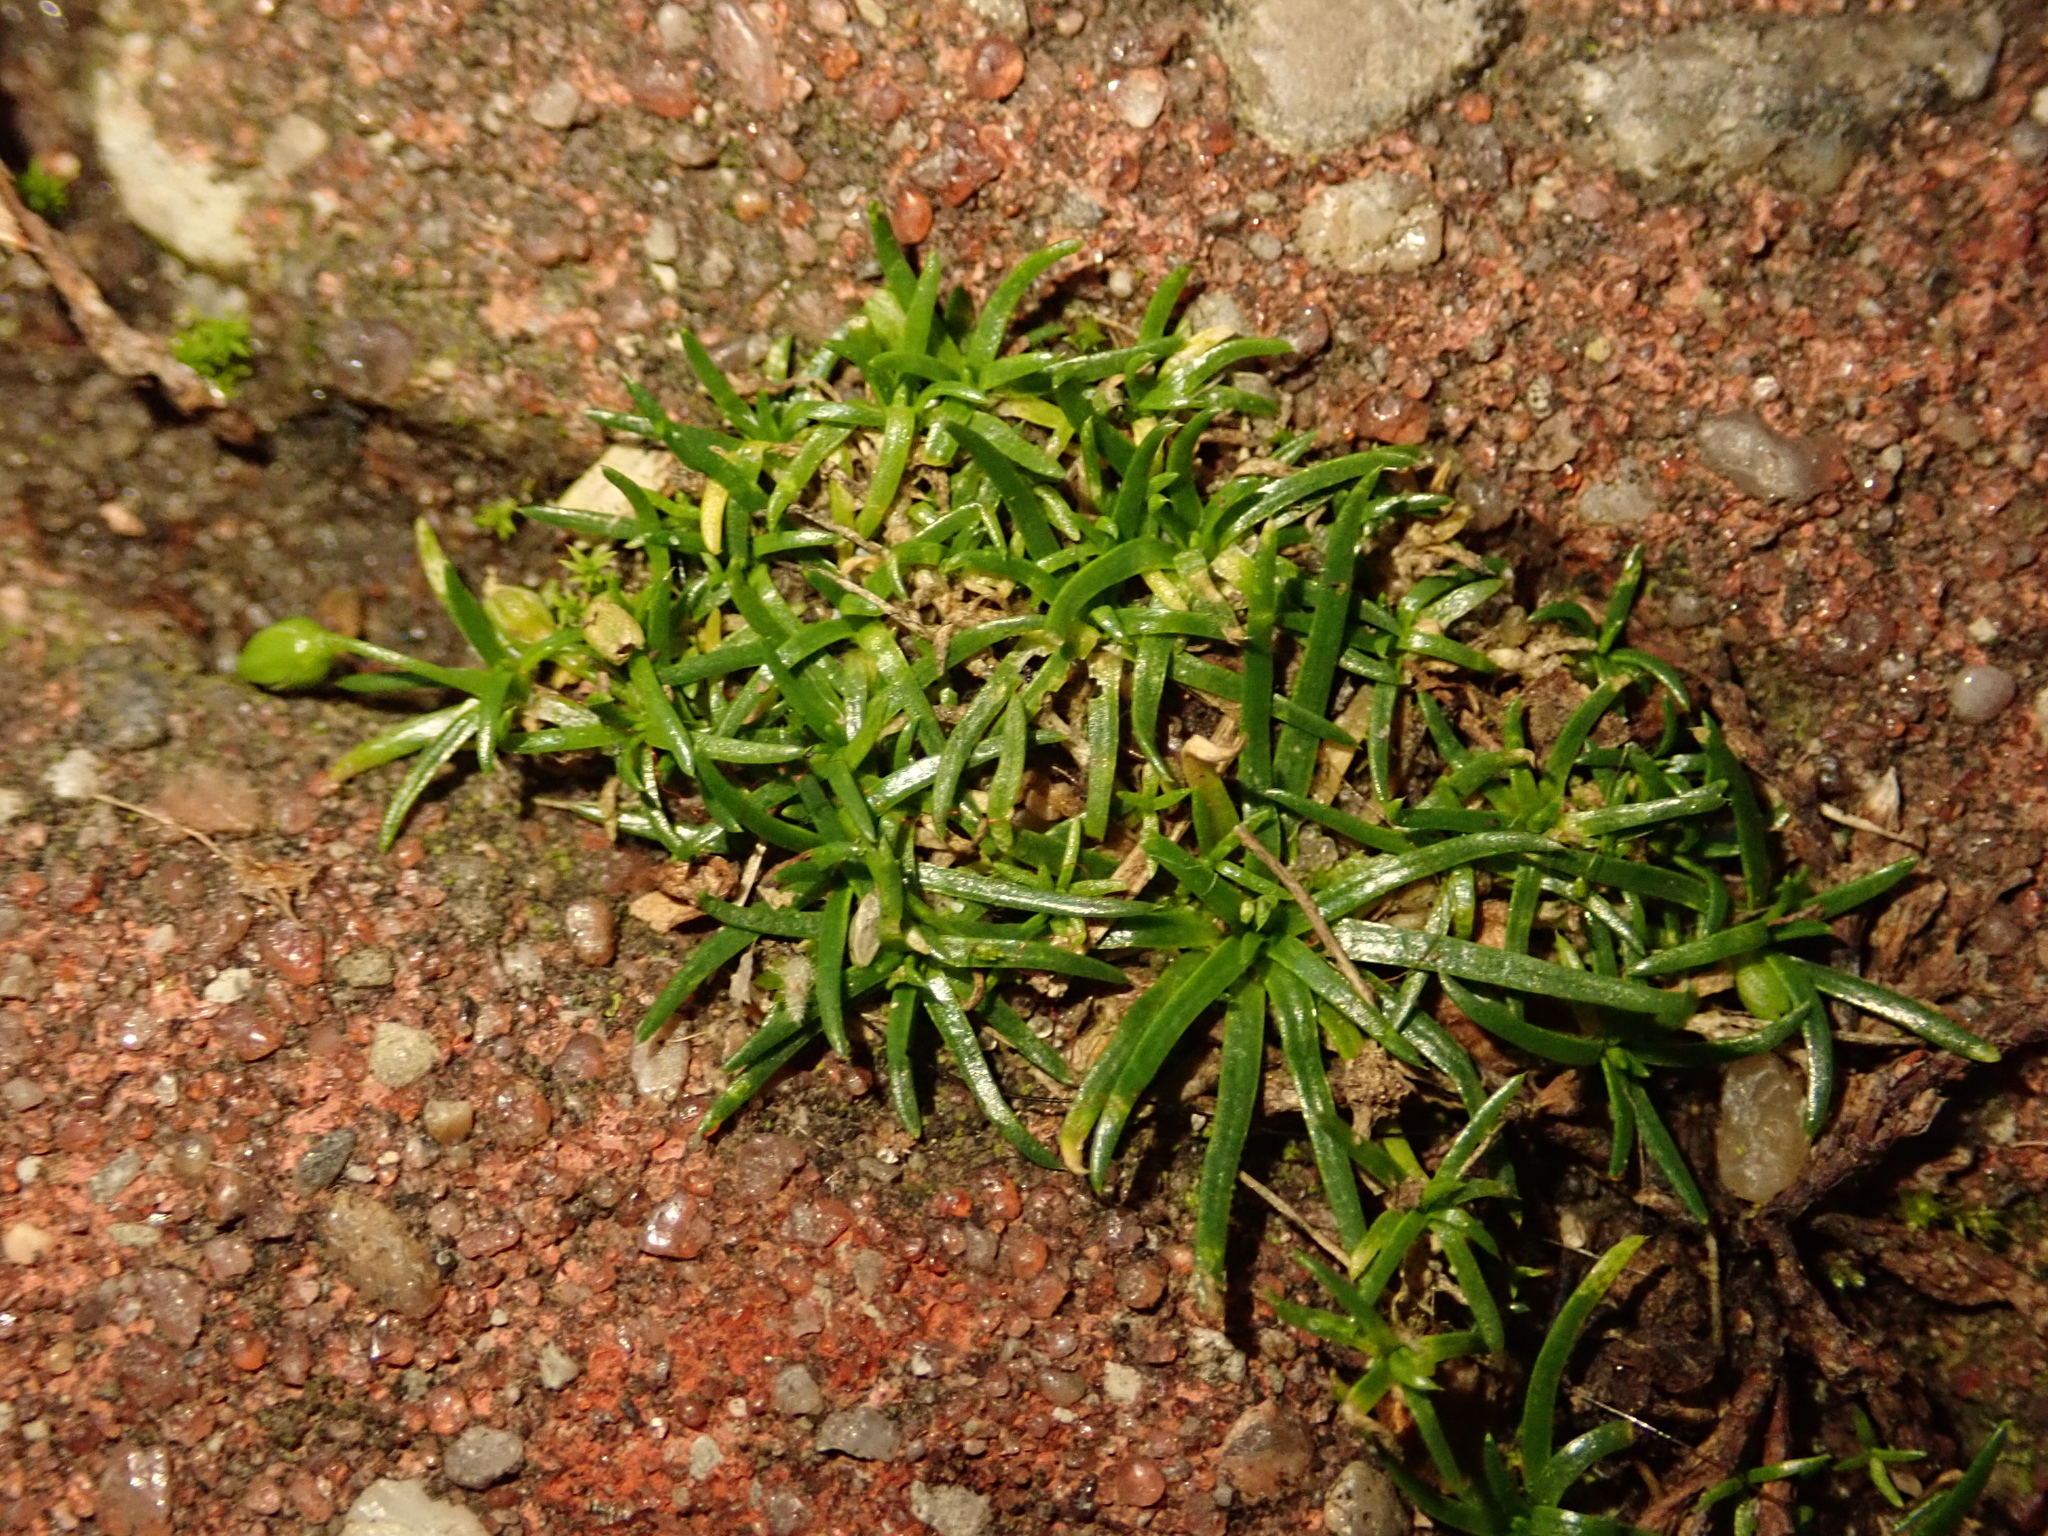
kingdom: Plantae
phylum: Tracheophyta
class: Magnoliopsida
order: Caryophyllales
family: Caryophyllaceae
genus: Sagina
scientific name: Sagina procumbens
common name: Procumbent pearlwort
